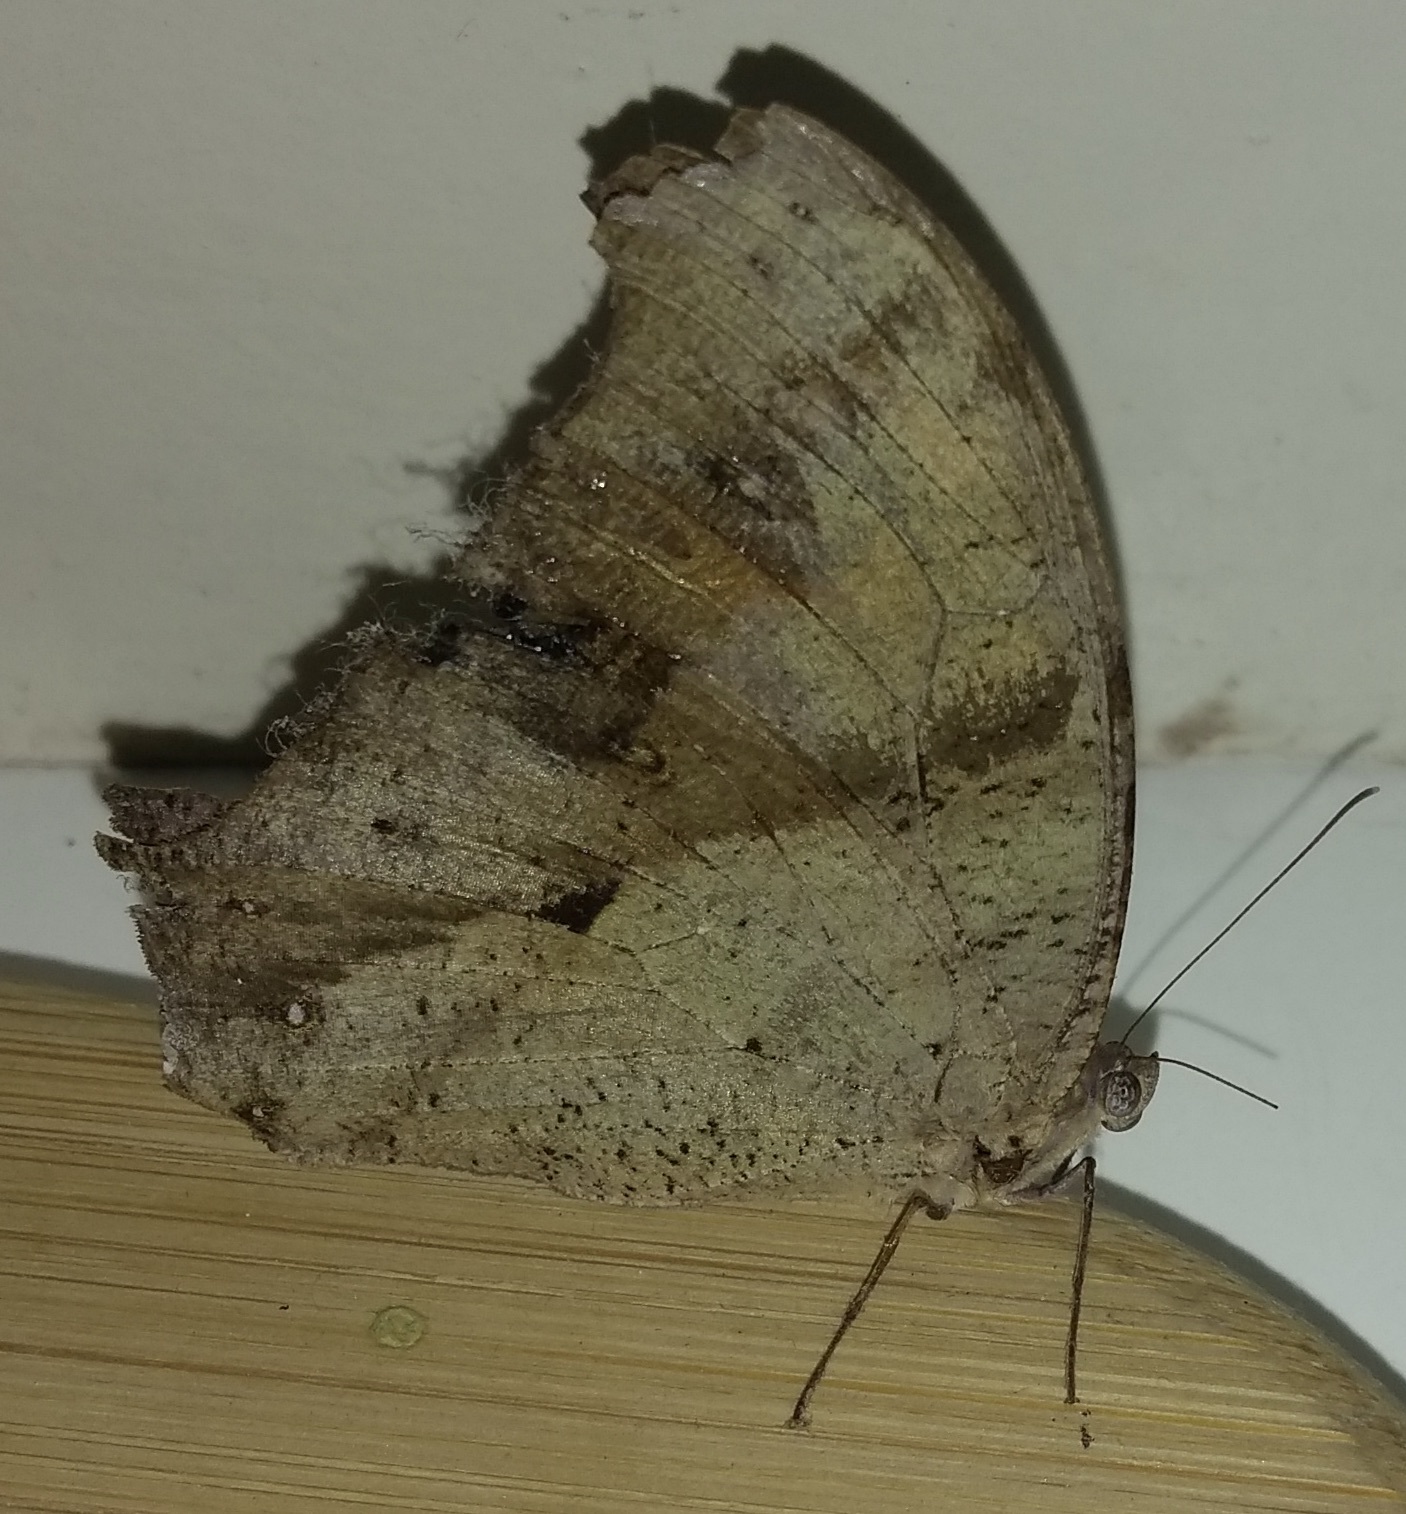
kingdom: Animalia
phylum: Arthropoda
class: Insecta
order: Lepidoptera
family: Nymphalidae
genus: Melanitis
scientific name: Melanitis leda
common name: Twilight brown
